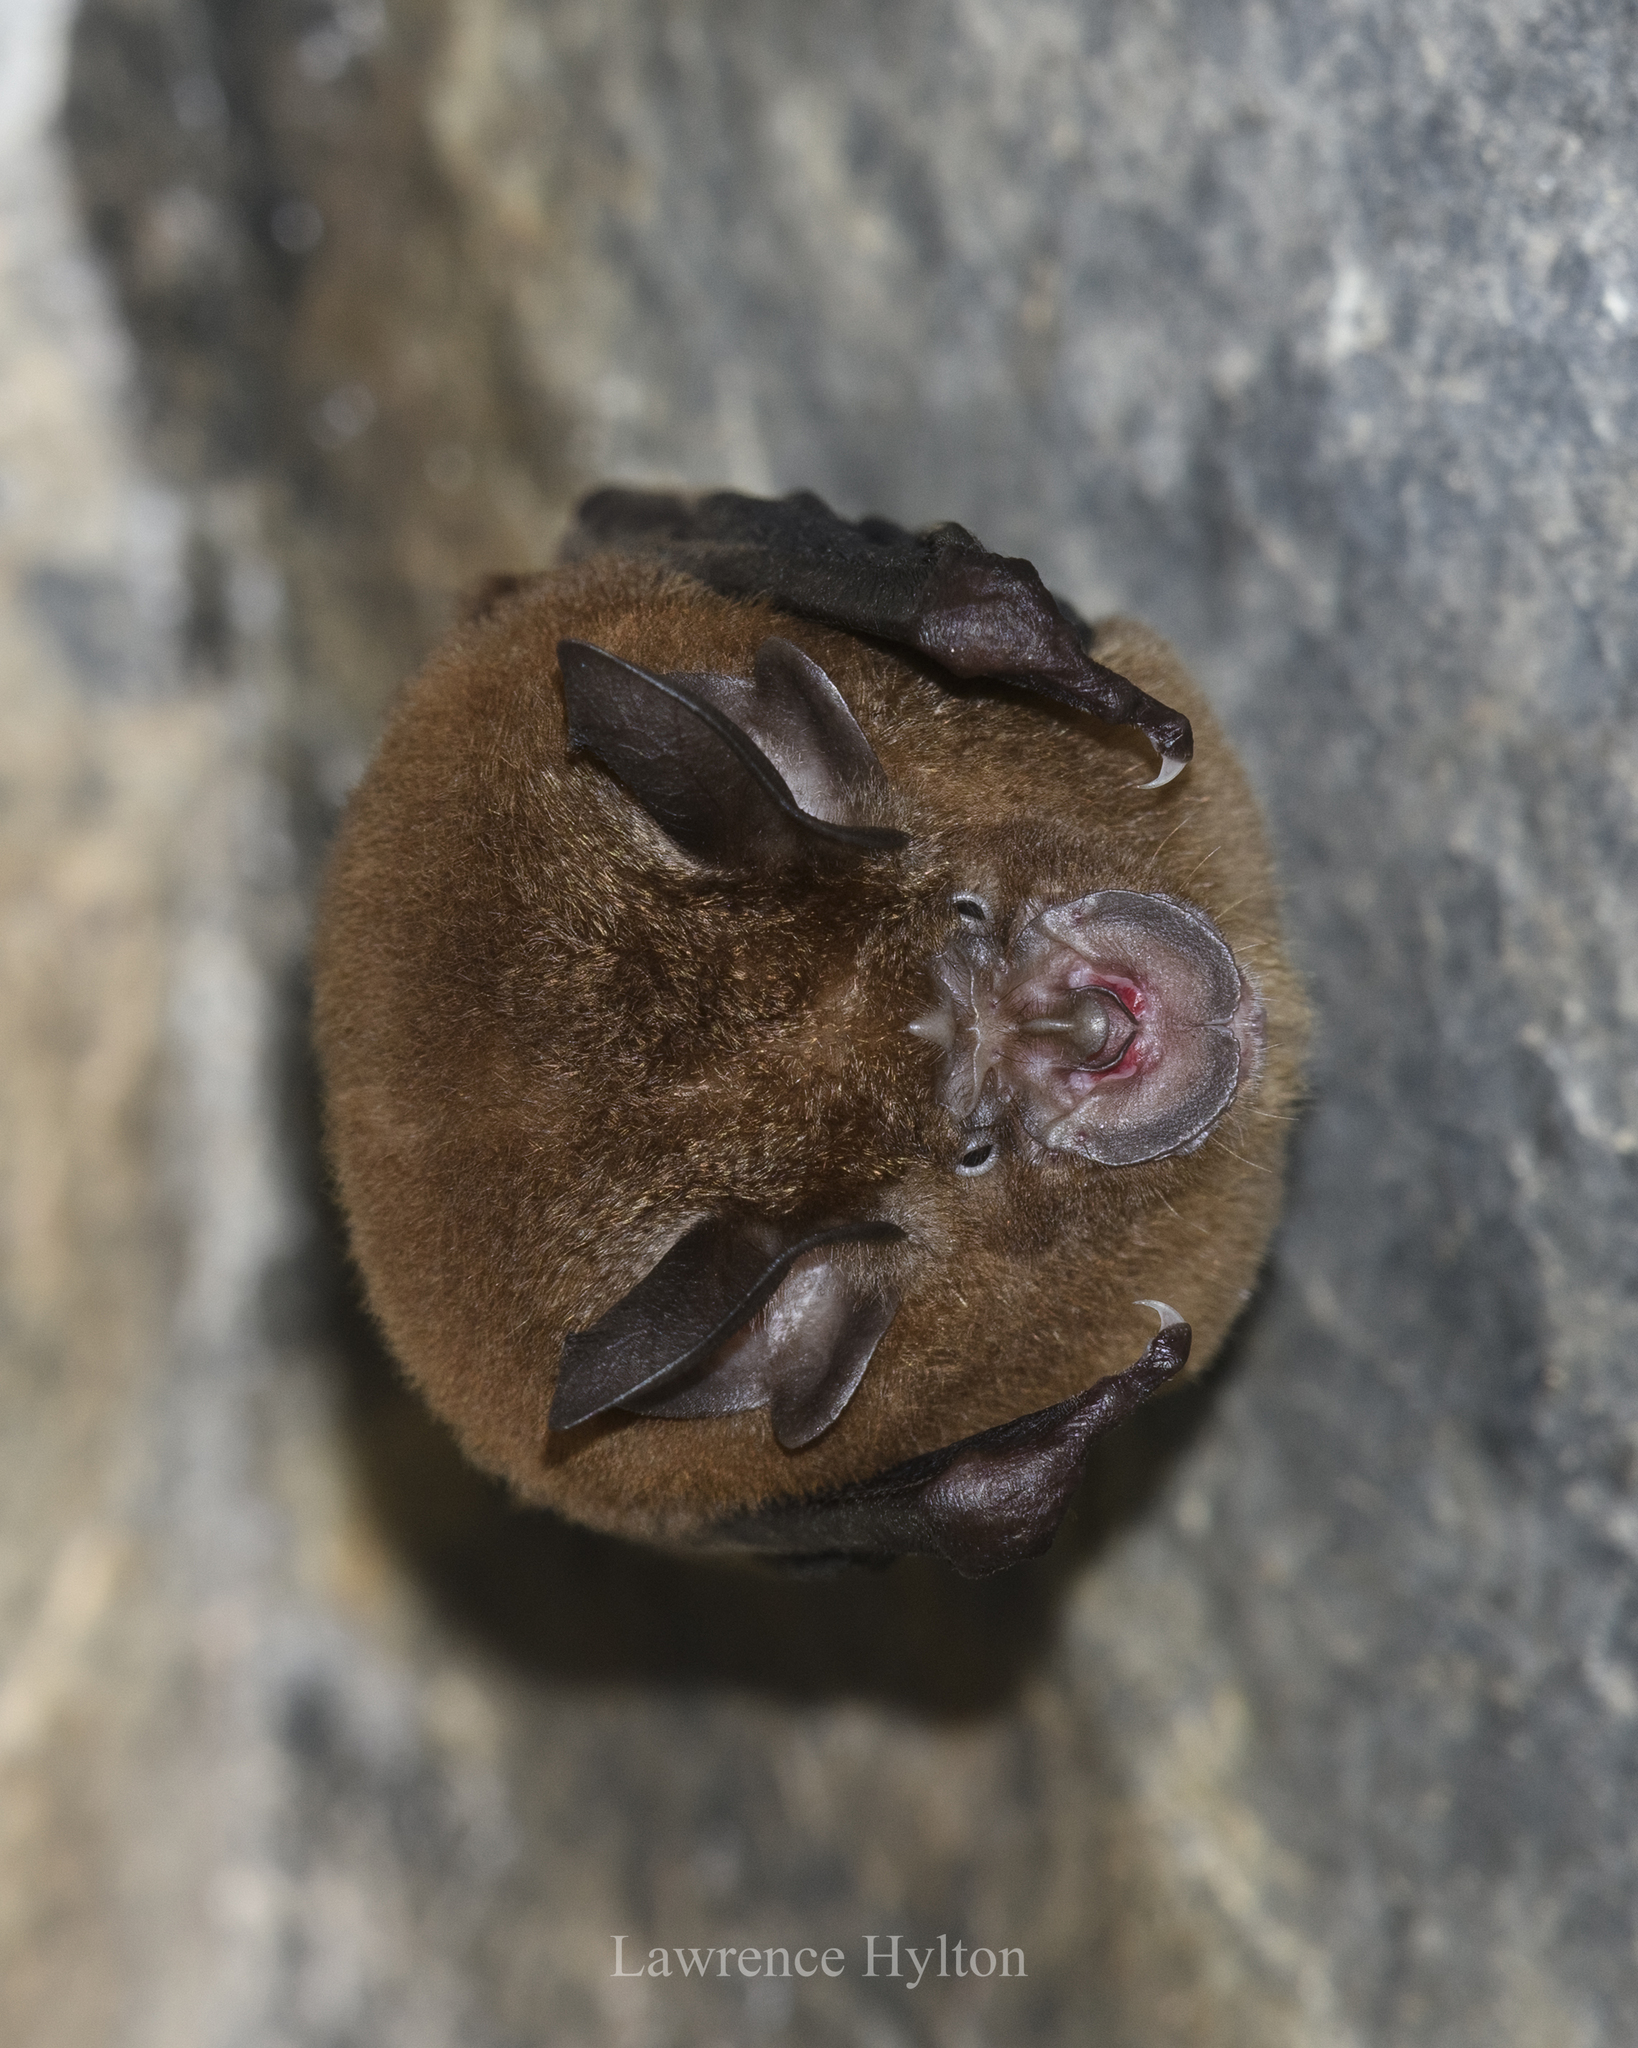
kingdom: Animalia
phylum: Chordata
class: Mammalia
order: Chiroptera
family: Rhinolophidae
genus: Rhinolophus
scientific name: Rhinolophus sinicus
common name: Chinese rufous horseshoe bat
